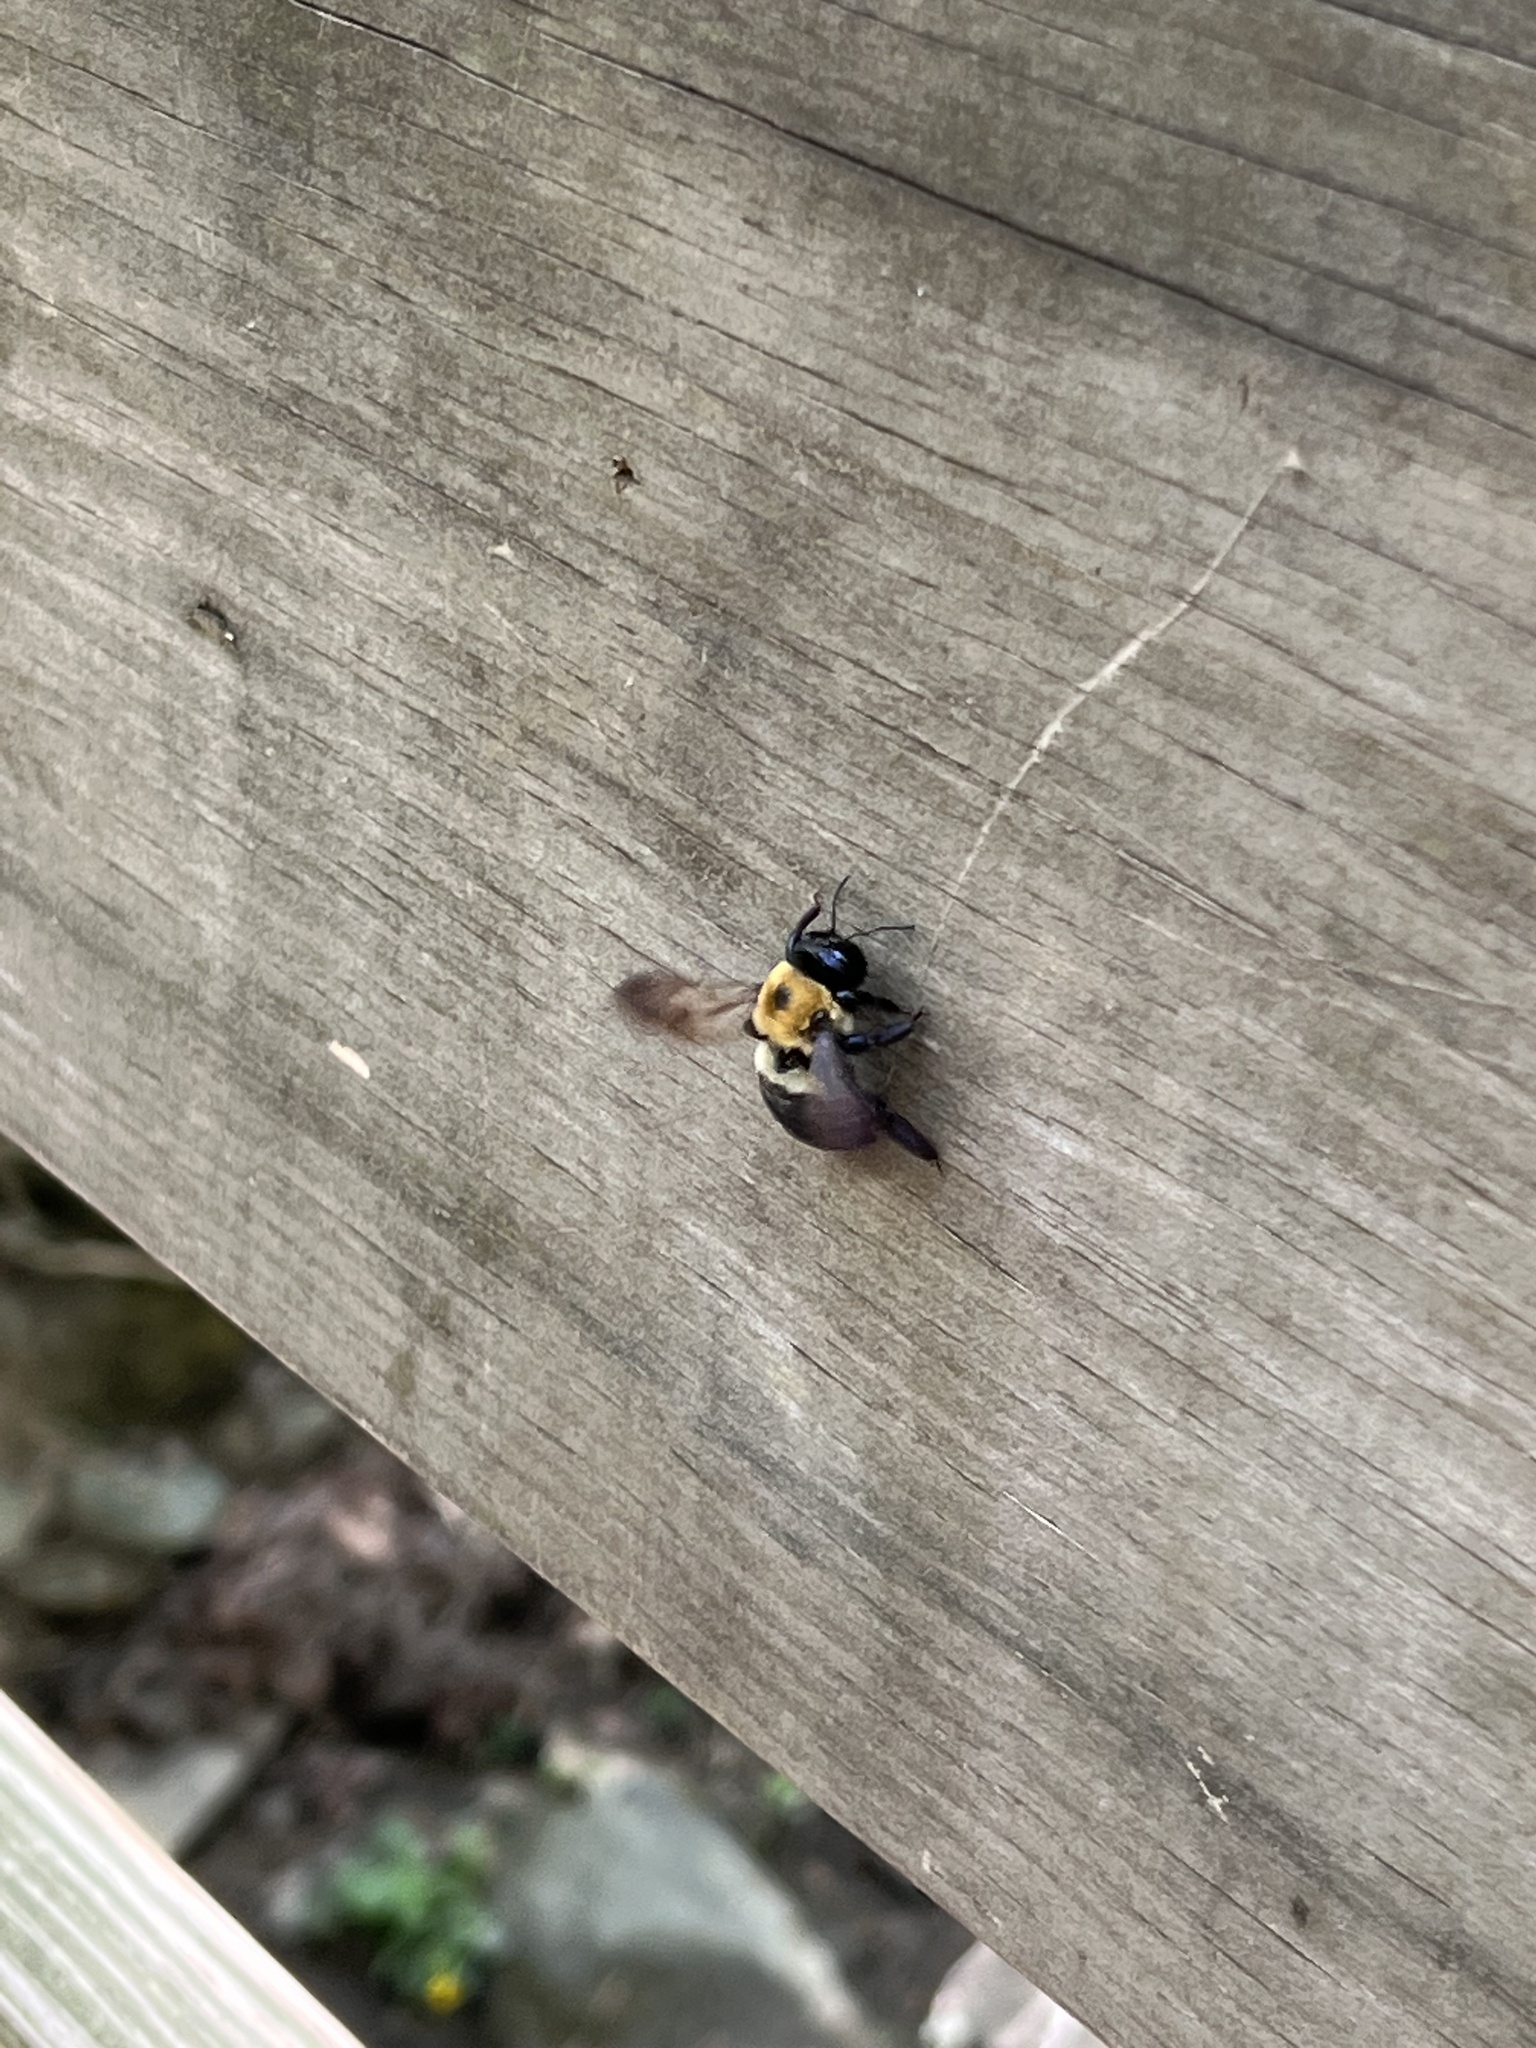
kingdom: Animalia
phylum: Arthropoda
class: Insecta
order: Hymenoptera
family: Apidae
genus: Xylocopa
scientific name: Xylocopa virginica
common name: Carpenter bee
